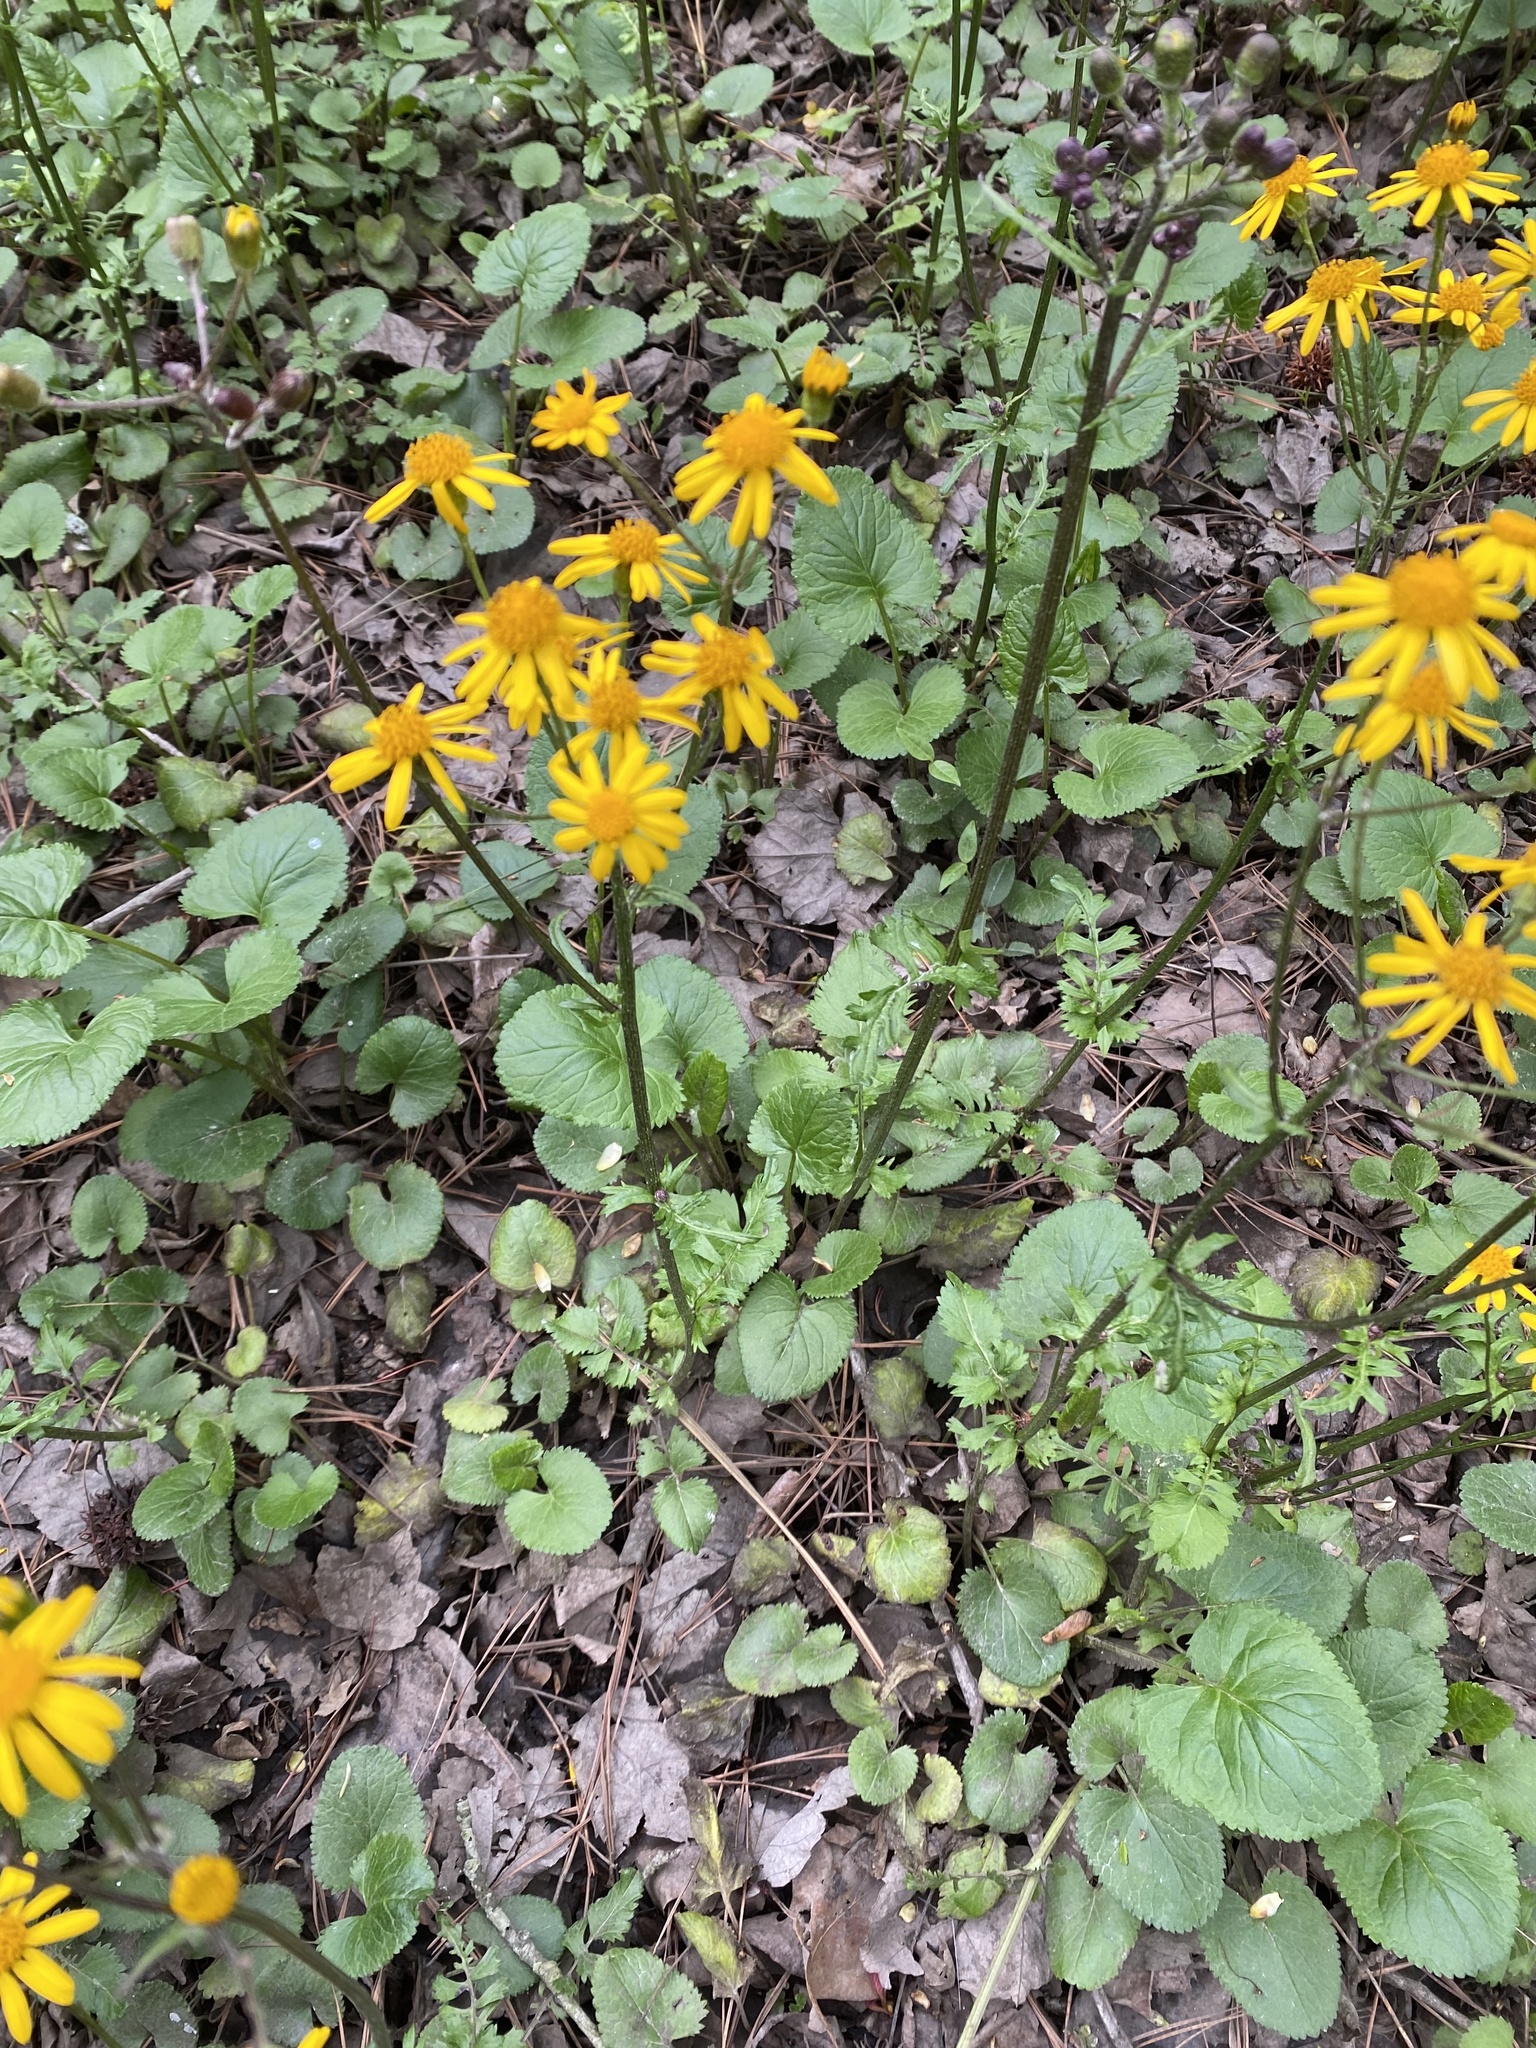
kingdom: Plantae
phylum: Tracheophyta
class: Magnoliopsida
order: Asterales
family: Asteraceae
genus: Packera
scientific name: Packera aurea
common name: Golden groundsel
